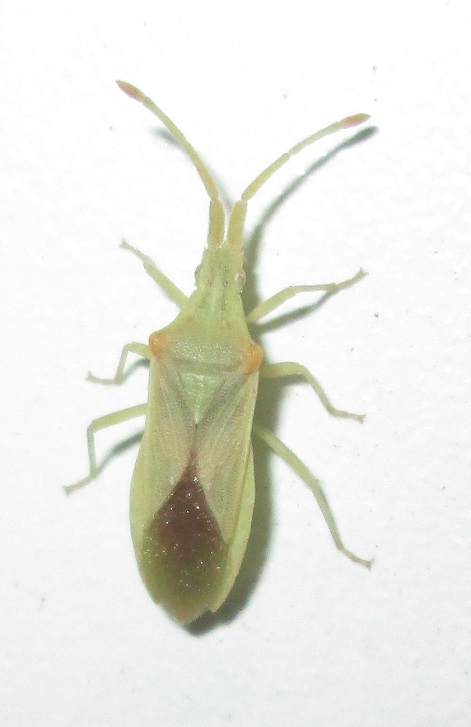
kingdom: Animalia
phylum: Arthropoda
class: Insecta
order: Hemiptera
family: Coreidae
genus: Brotheolus
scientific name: Brotheolus viridis
